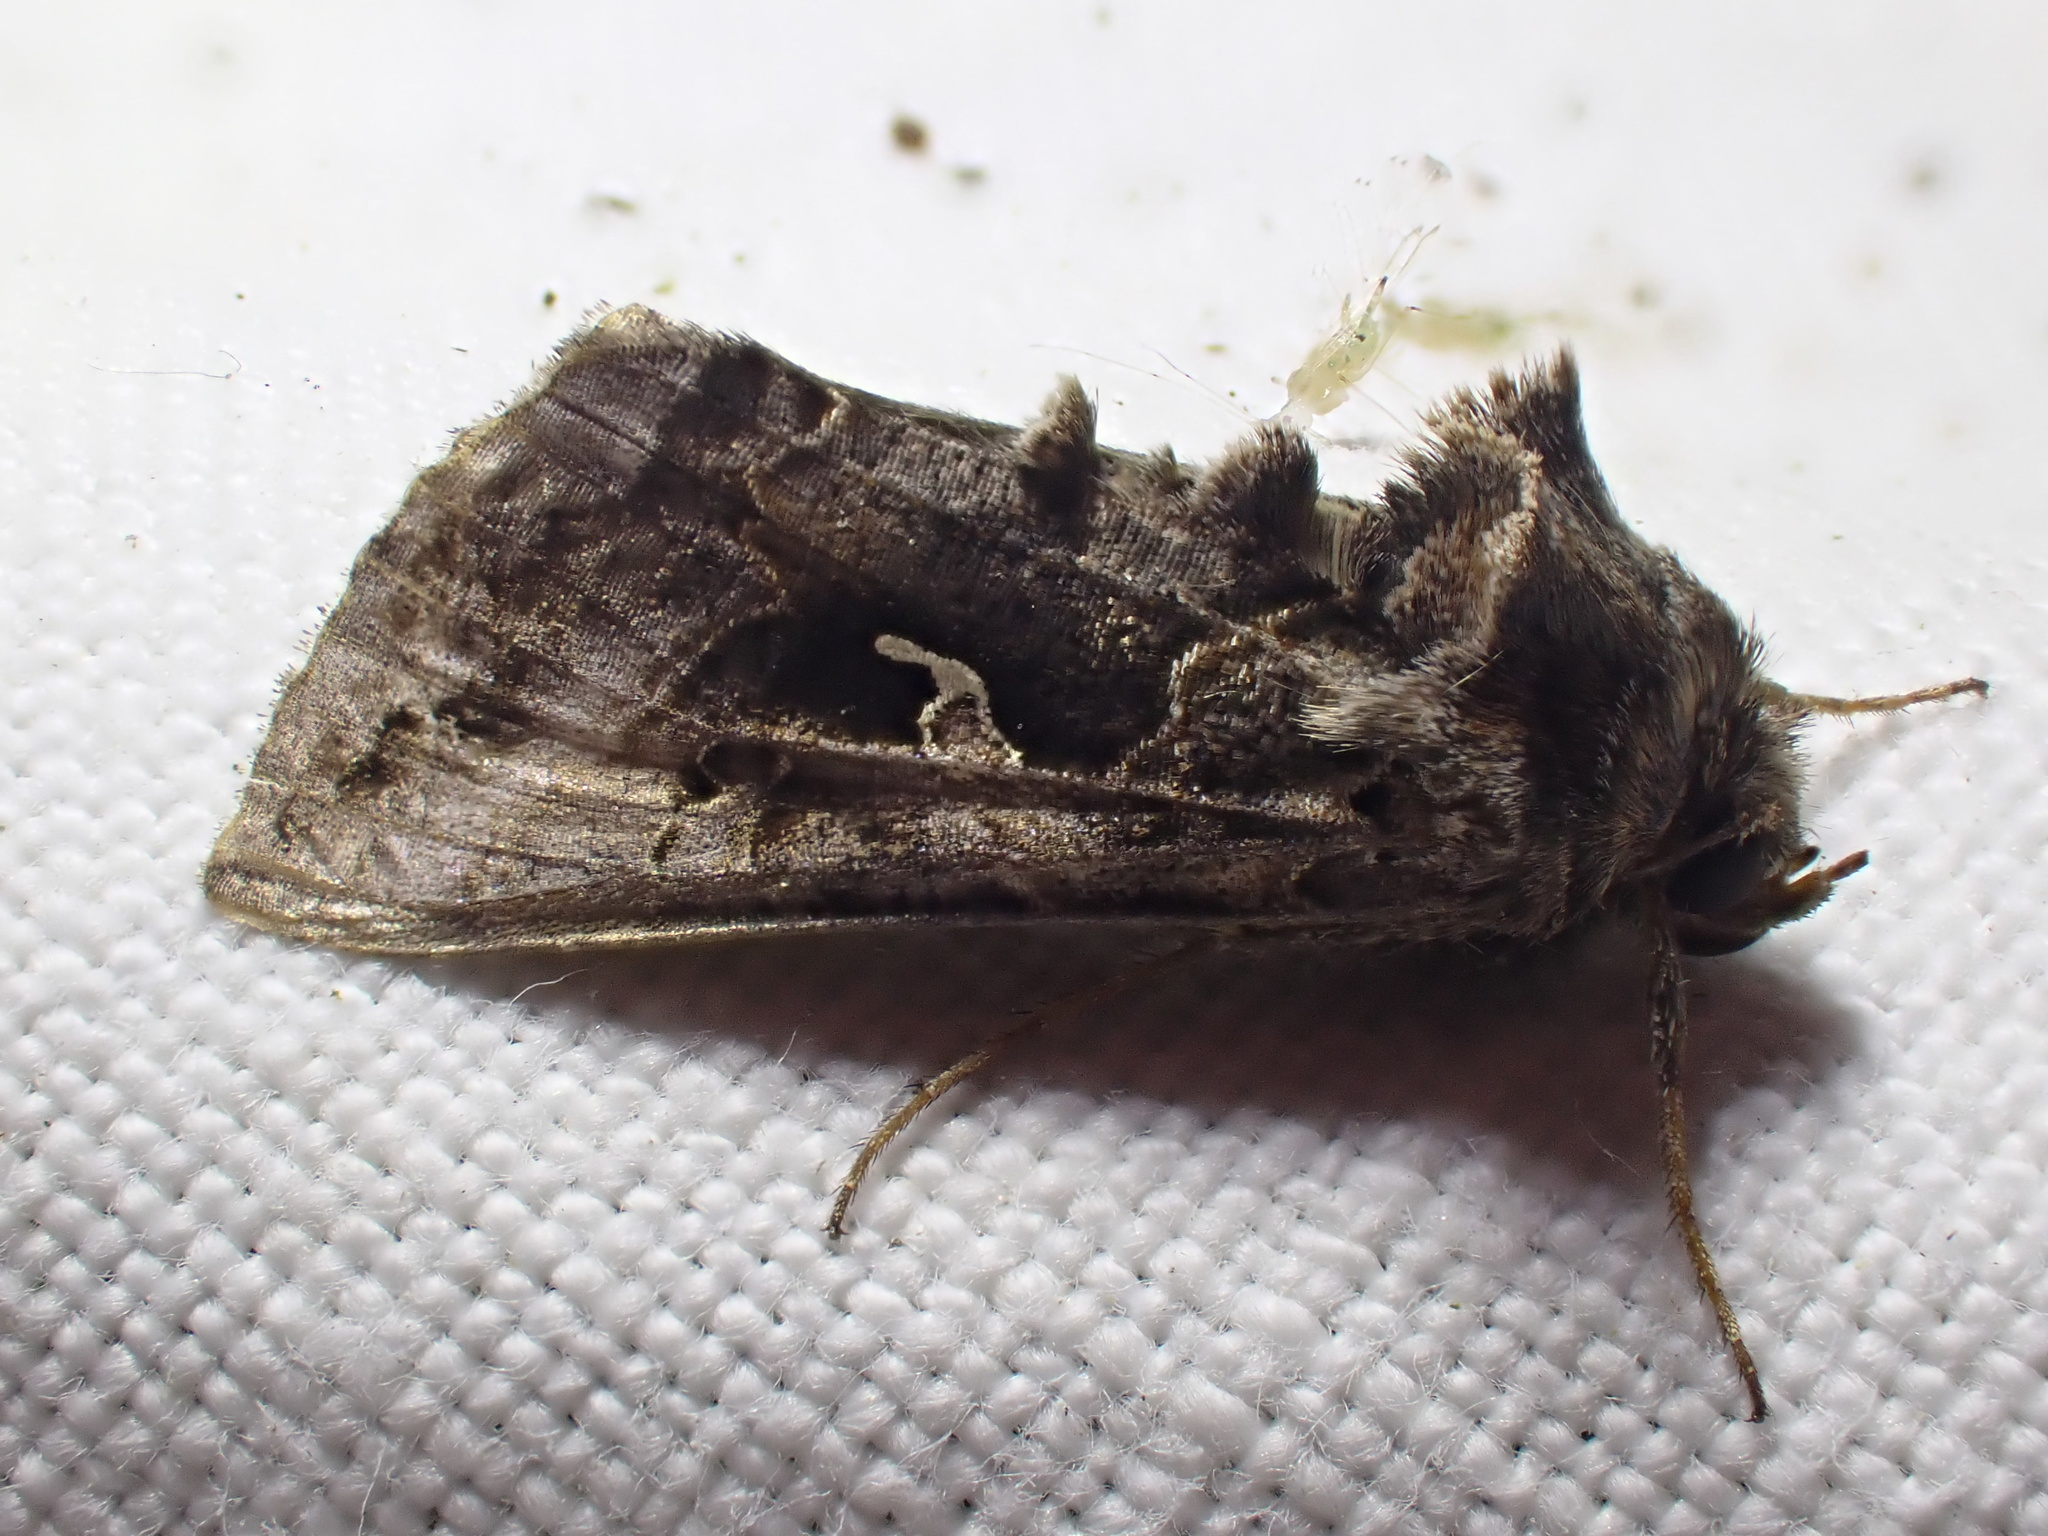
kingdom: Animalia
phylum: Arthropoda
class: Insecta
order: Lepidoptera
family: Noctuidae
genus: Autographa
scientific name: Autographa gamma
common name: Silver y
